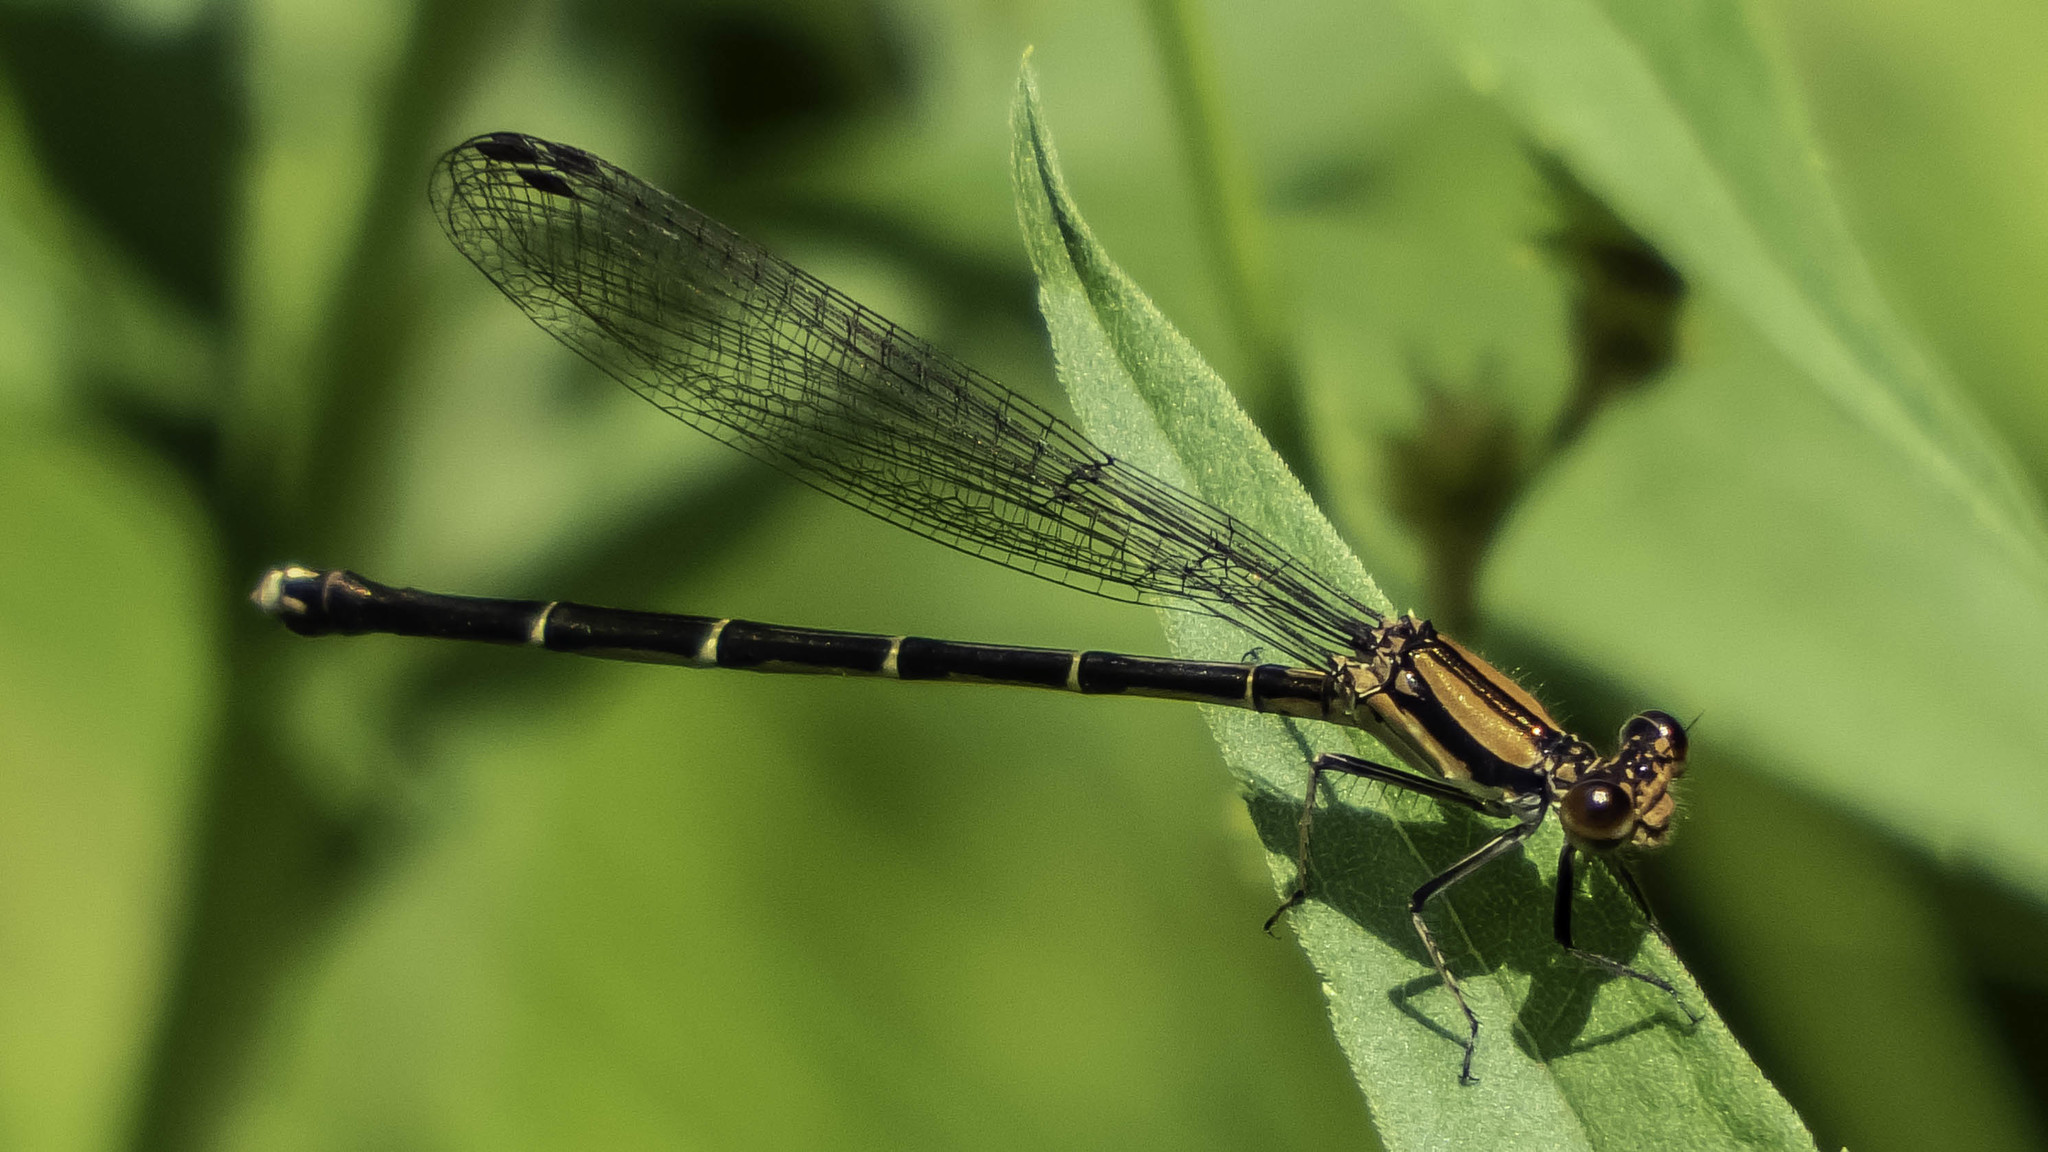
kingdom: Animalia
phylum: Arthropoda
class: Insecta
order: Odonata
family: Coenagrionidae
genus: Argia
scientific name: Argia tibialis
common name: Blue-tipped dancer
